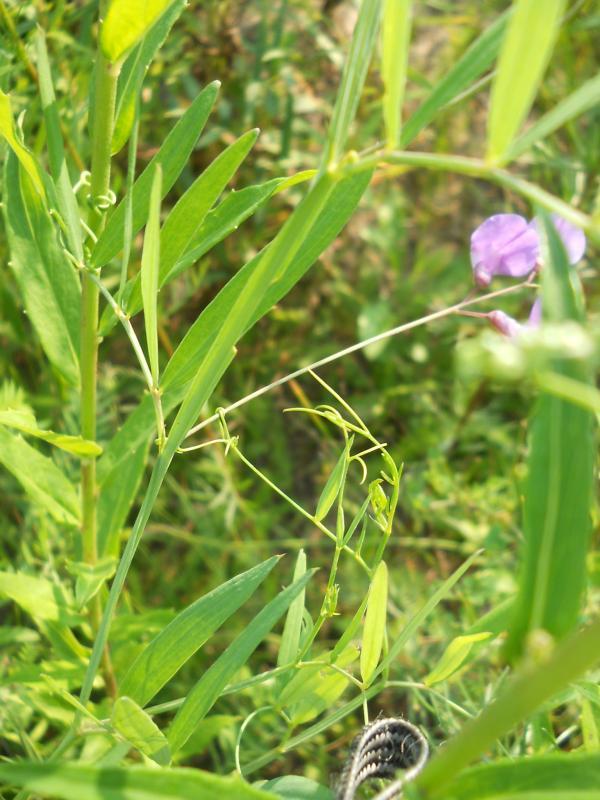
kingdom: Plantae
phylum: Tracheophyta
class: Magnoliopsida
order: Fabales
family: Fabaceae
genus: Lathyrus
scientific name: Lathyrus palustris
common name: Marsh pea
